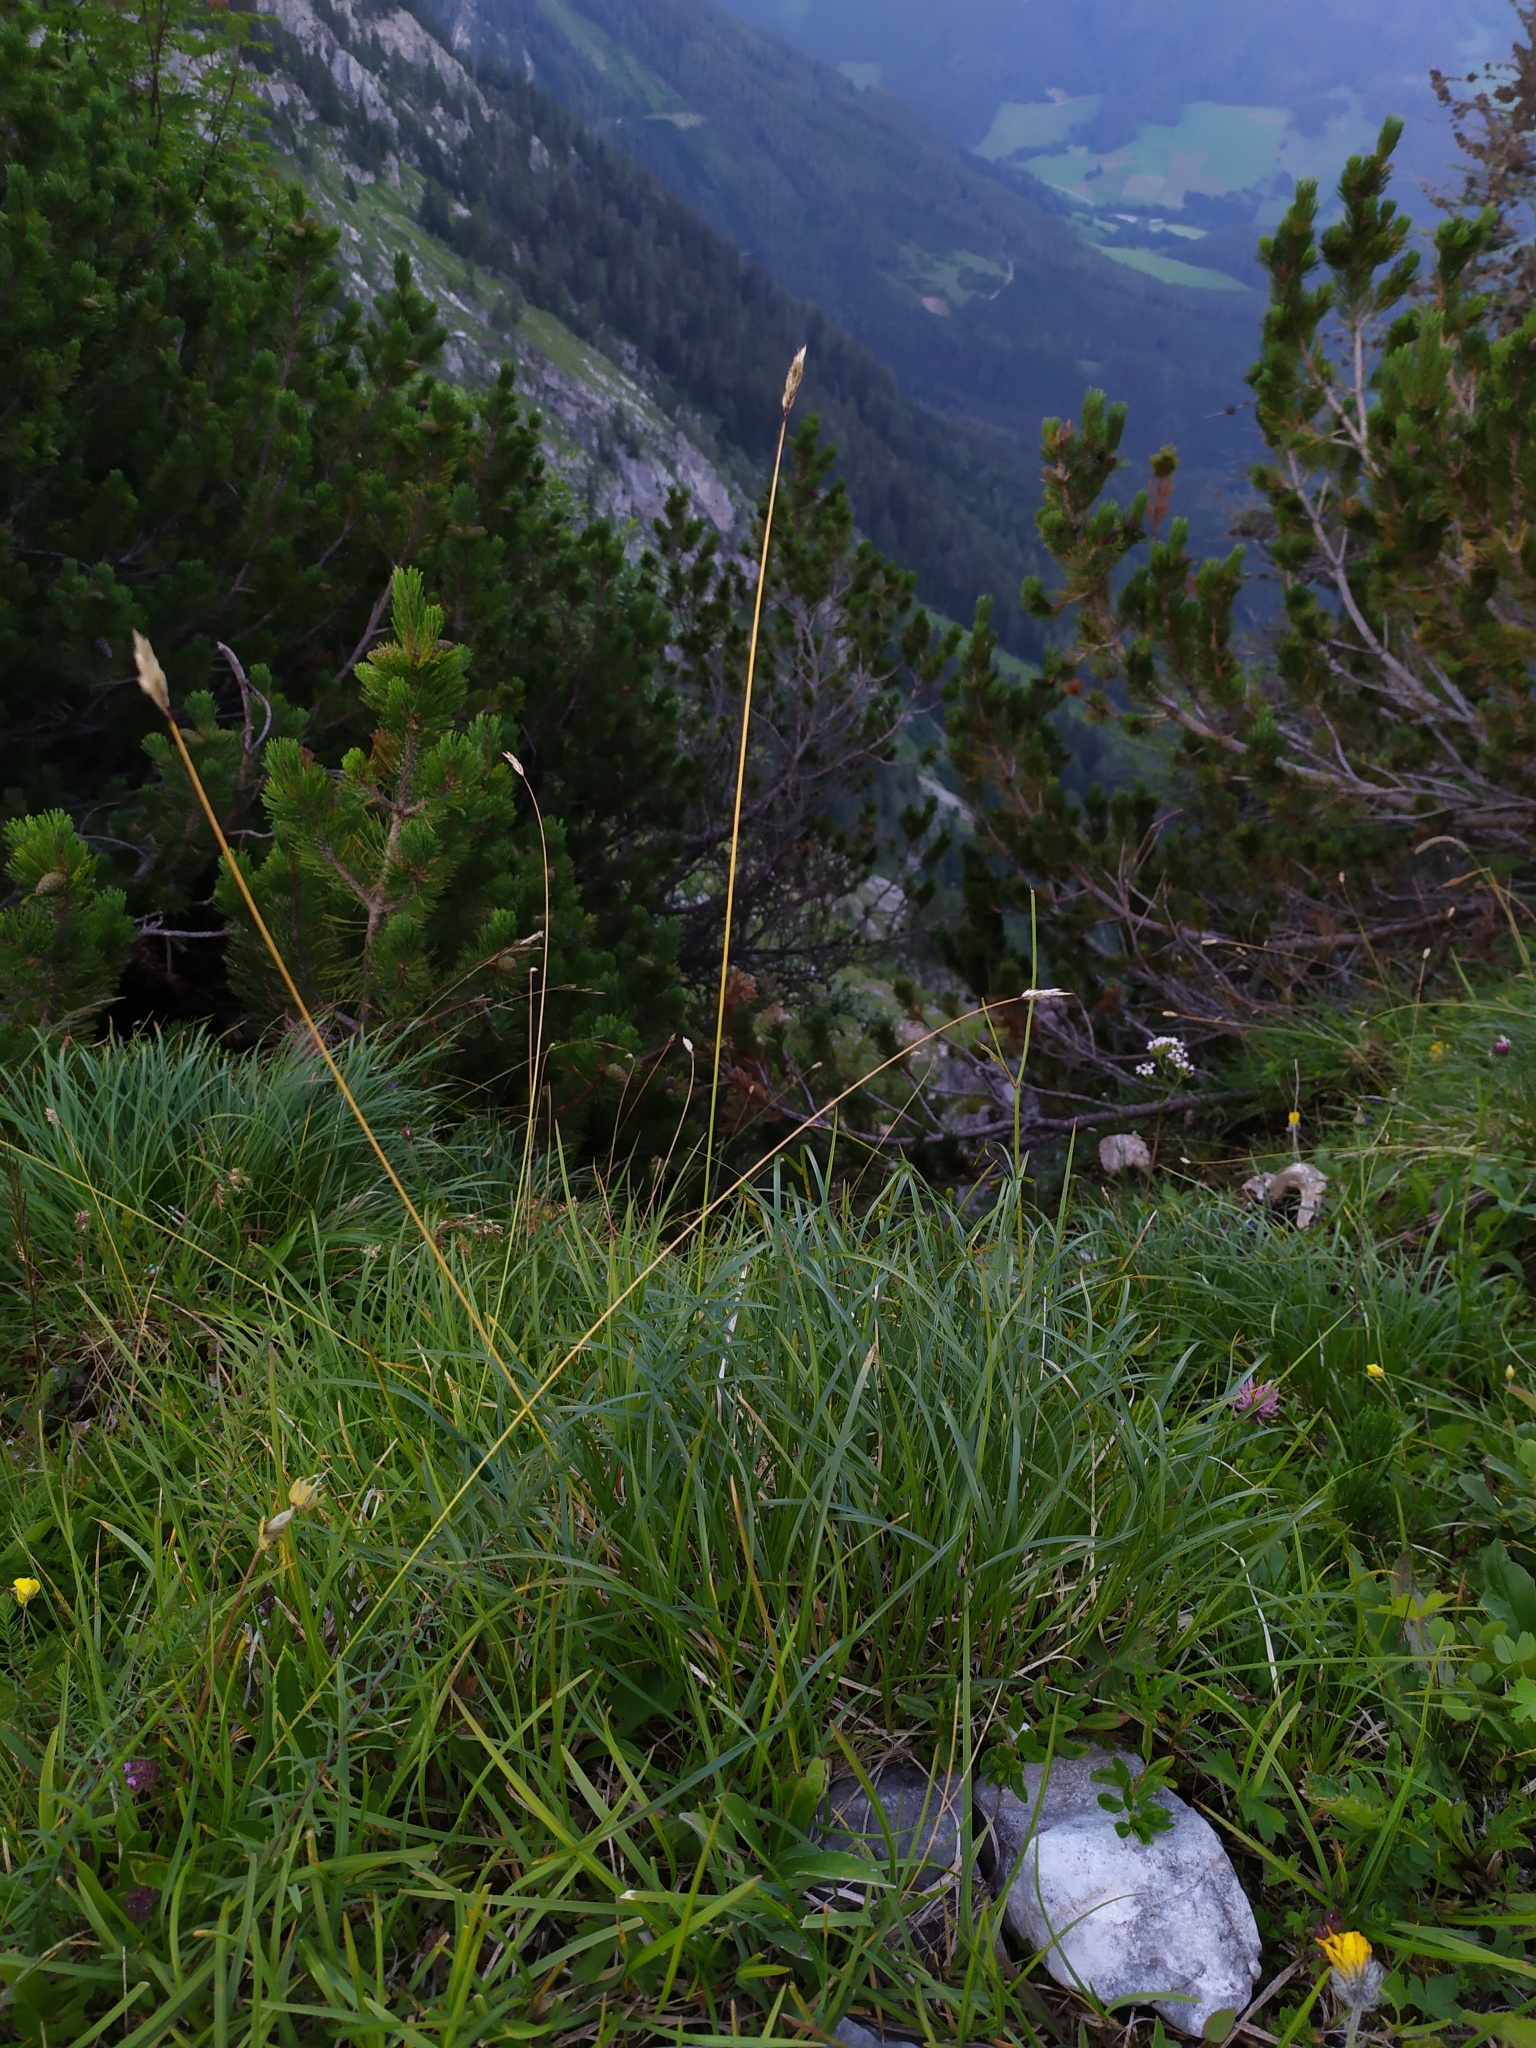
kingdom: Plantae
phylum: Tracheophyta
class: Liliopsida
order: Poales
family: Poaceae
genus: Sesleria
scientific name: Sesleria caerulea
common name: Blue moor-grass
